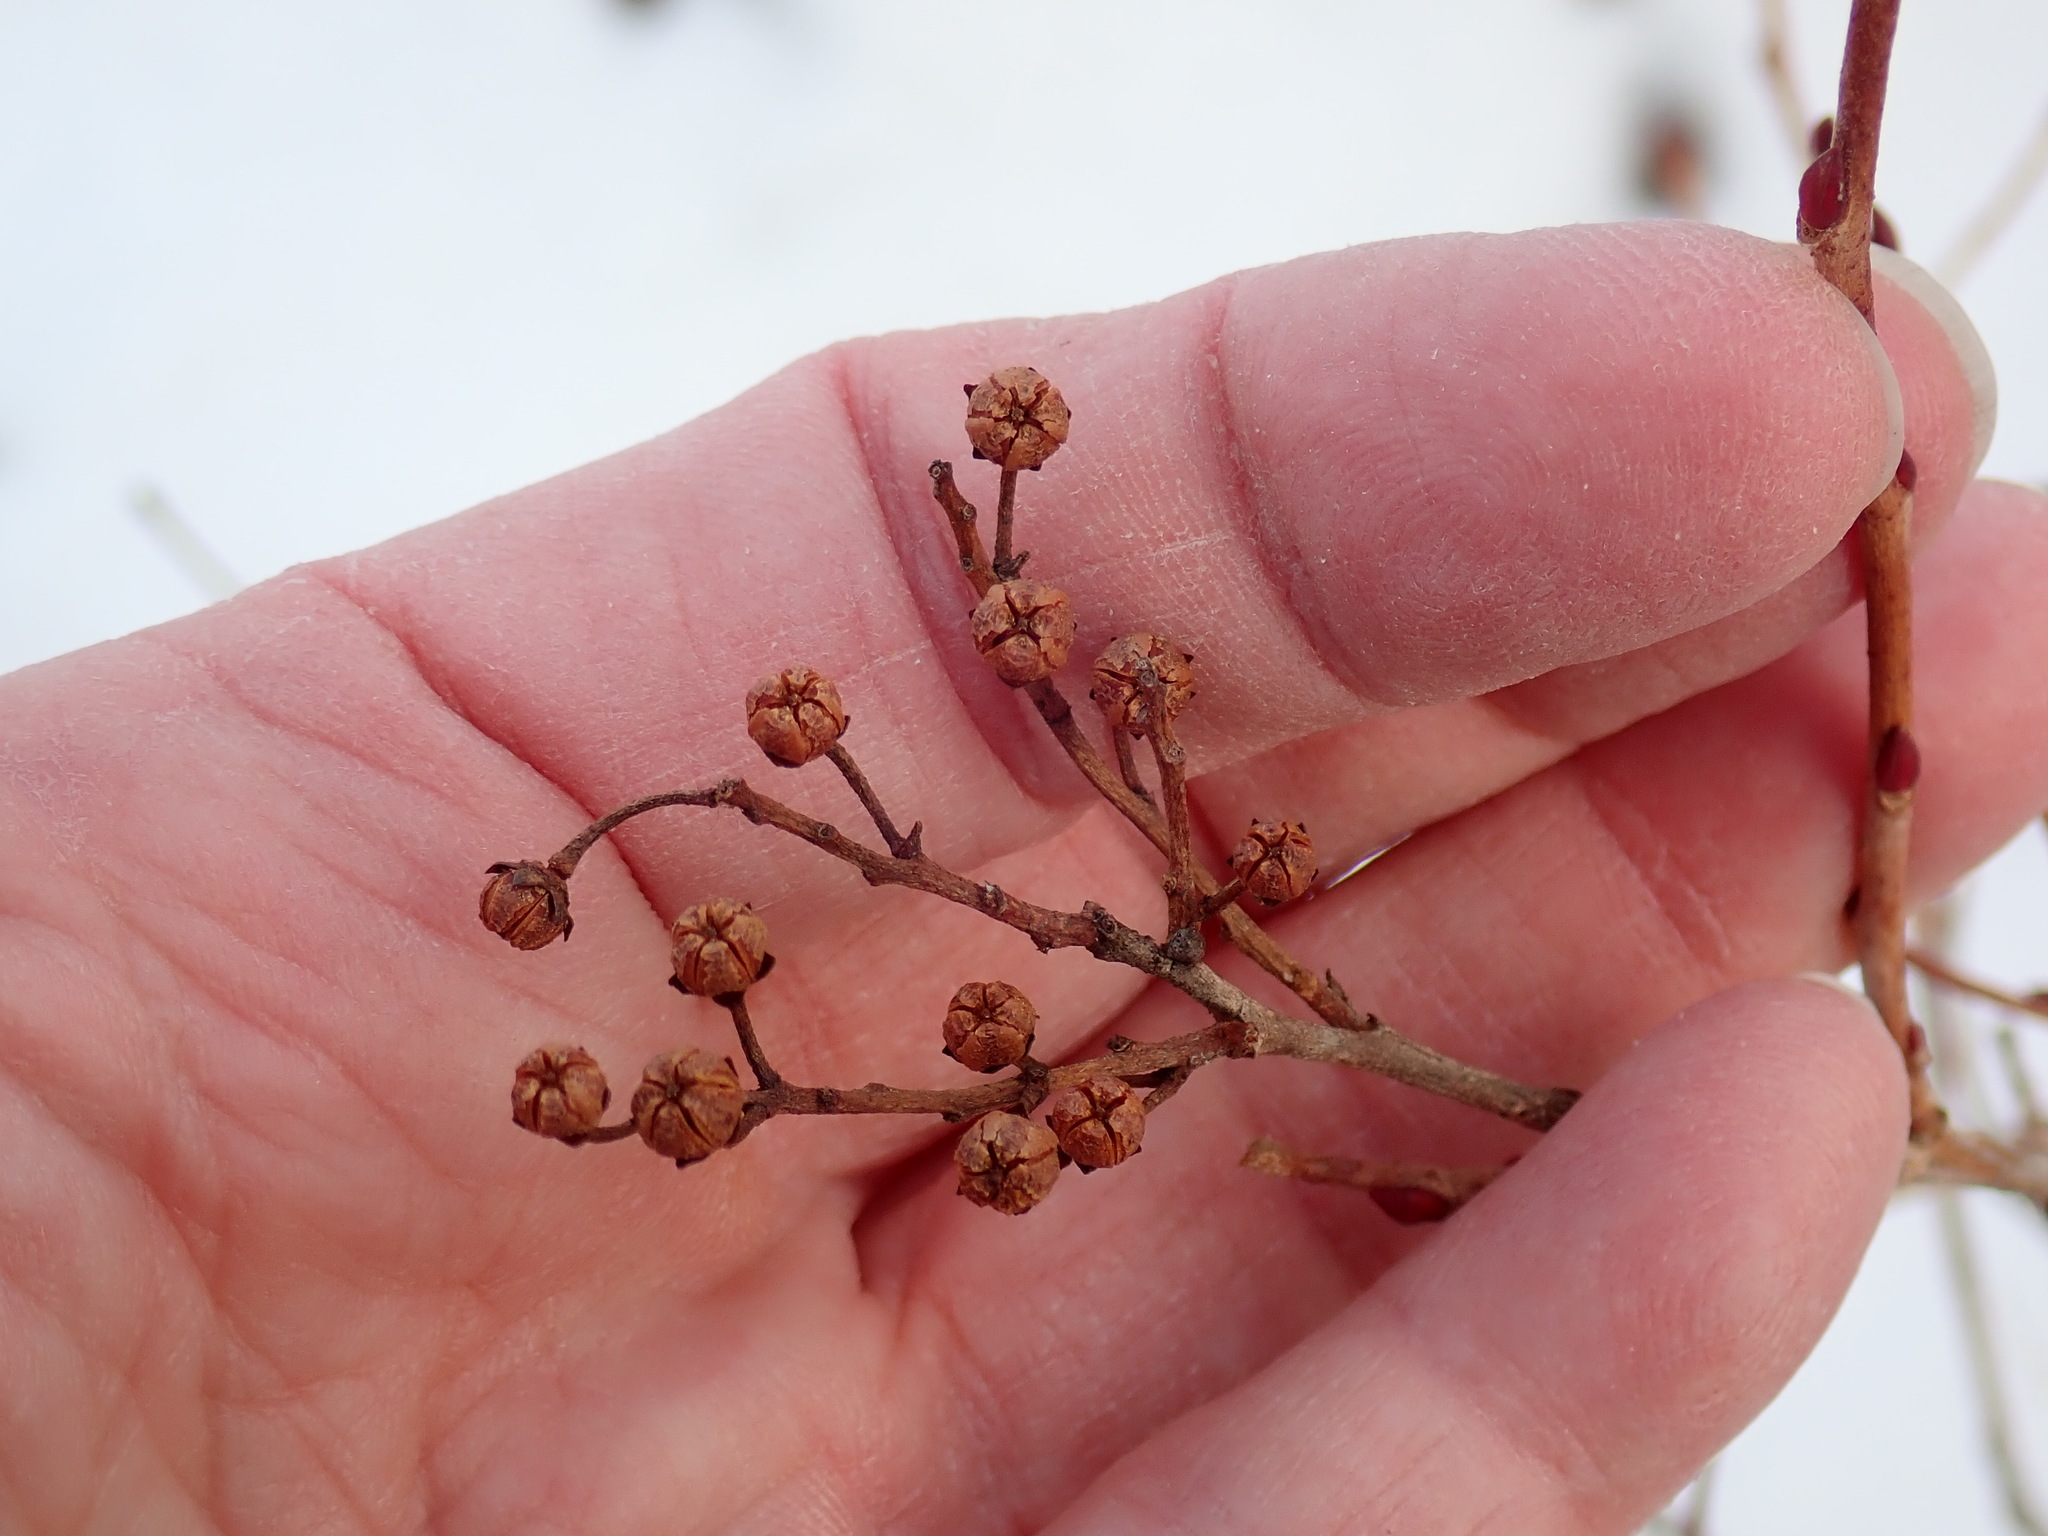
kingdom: Plantae
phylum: Tracheophyta
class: Magnoliopsida
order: Ericales
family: Ericaceae
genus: Lyonia
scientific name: Lyonia ligustrina
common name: Maleberry
